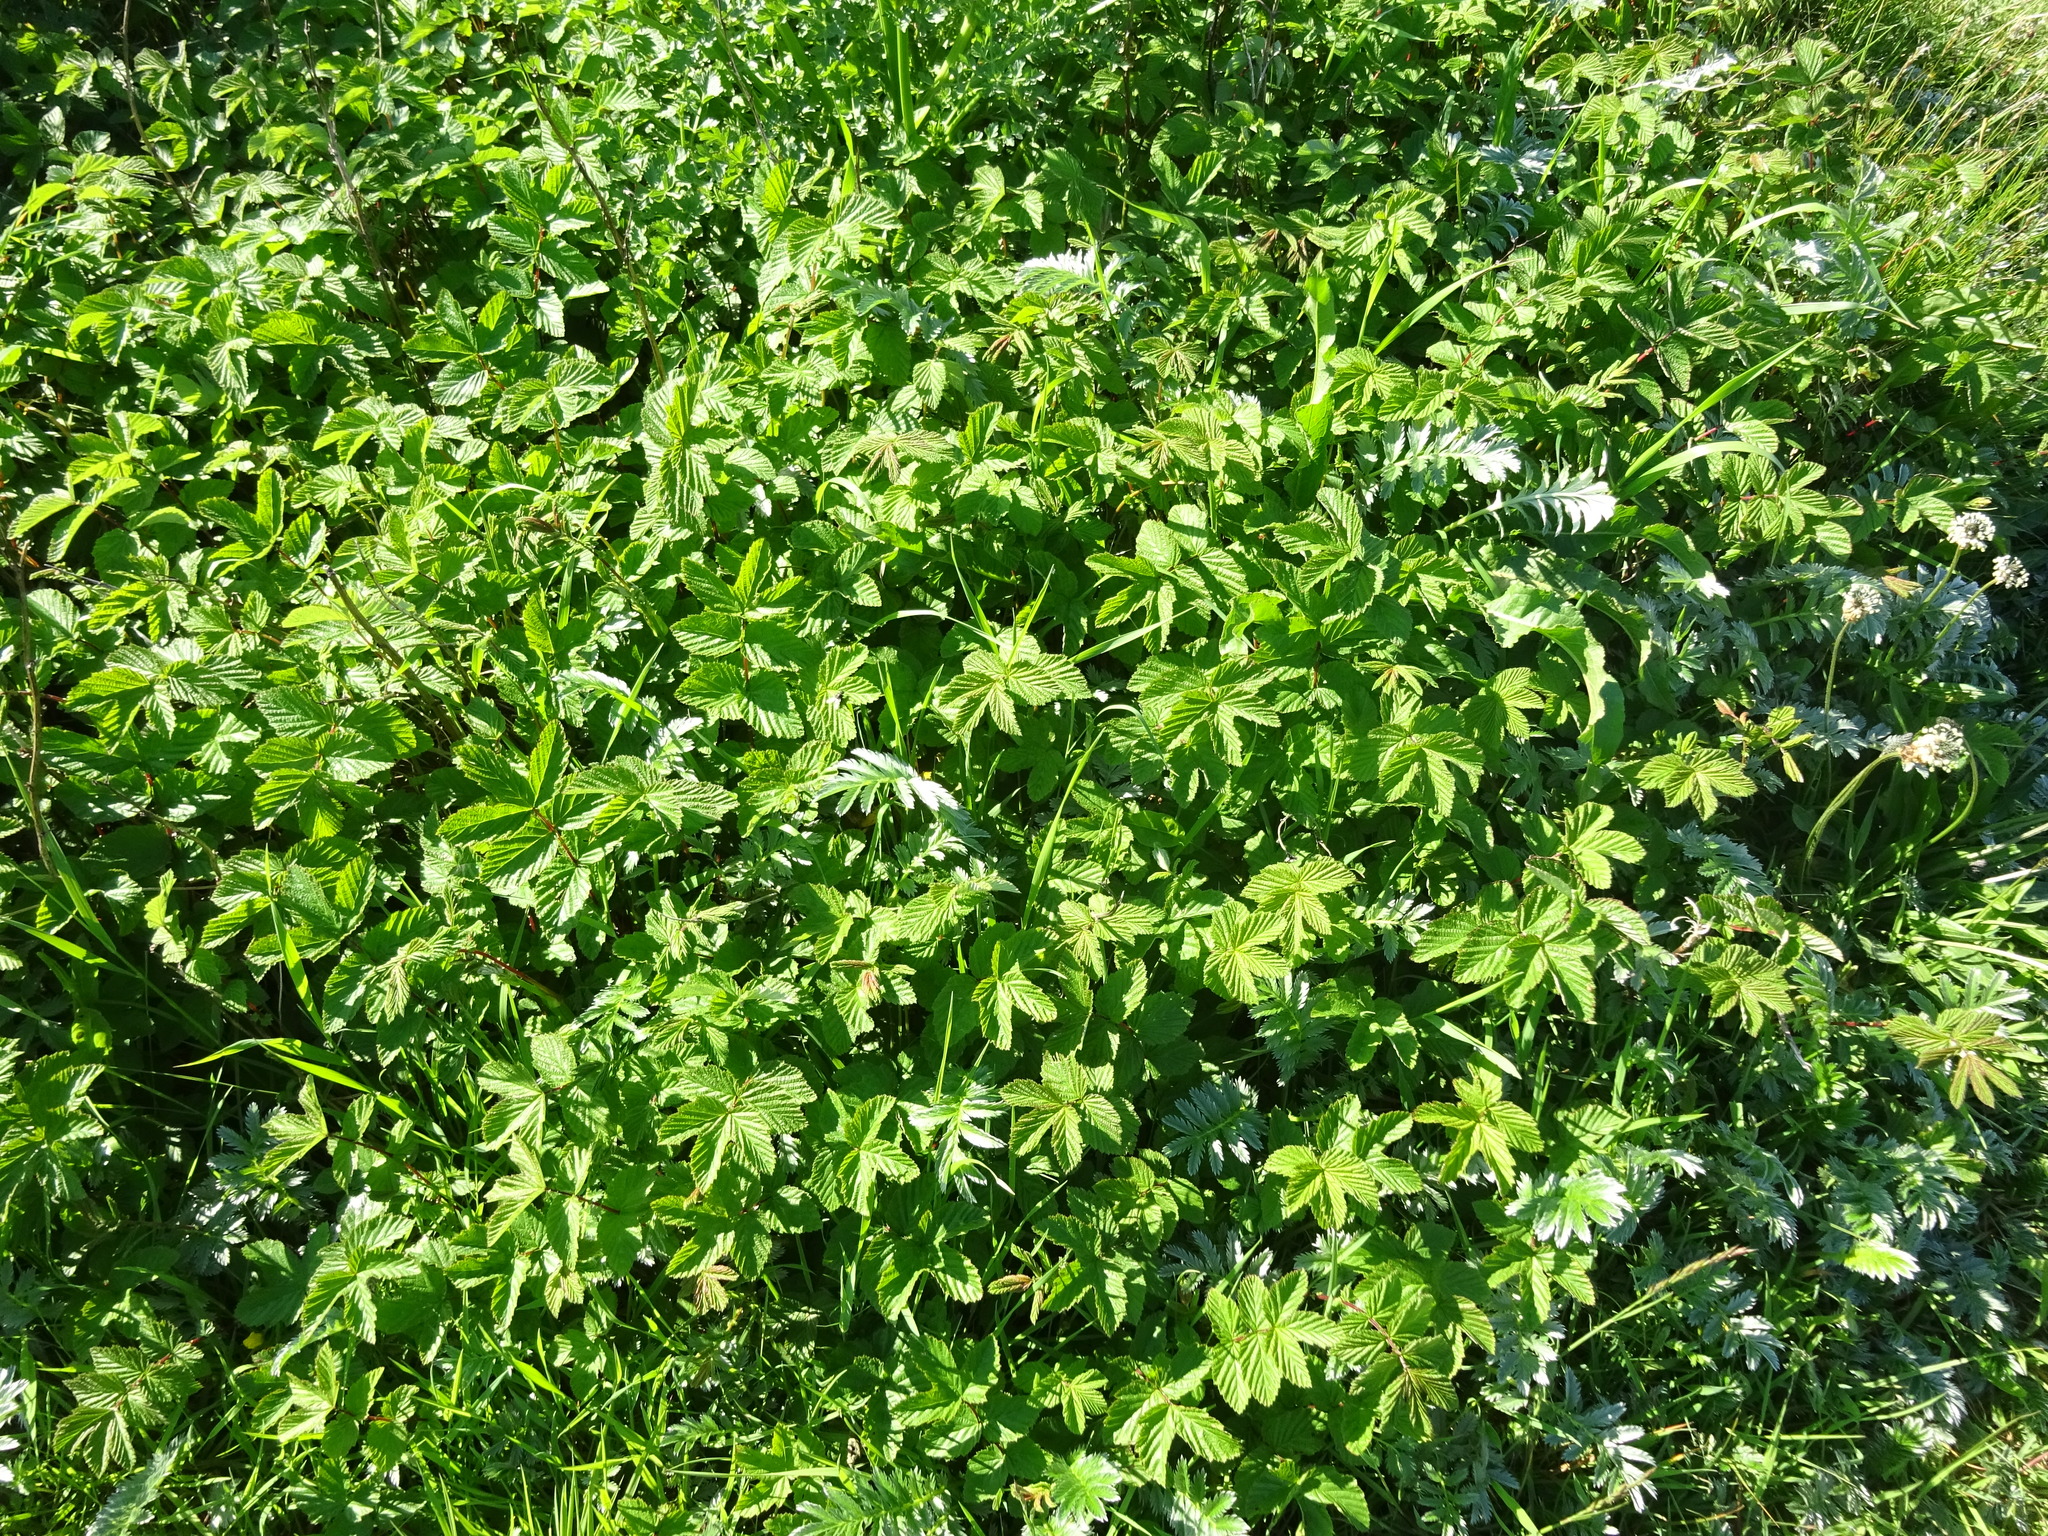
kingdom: Plantae
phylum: Tracheophyta
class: Magnoliopsida
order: Rosales
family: Rosaceae
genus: Filipendula
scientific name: Filipendula ulmaria
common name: Meadowsweet
